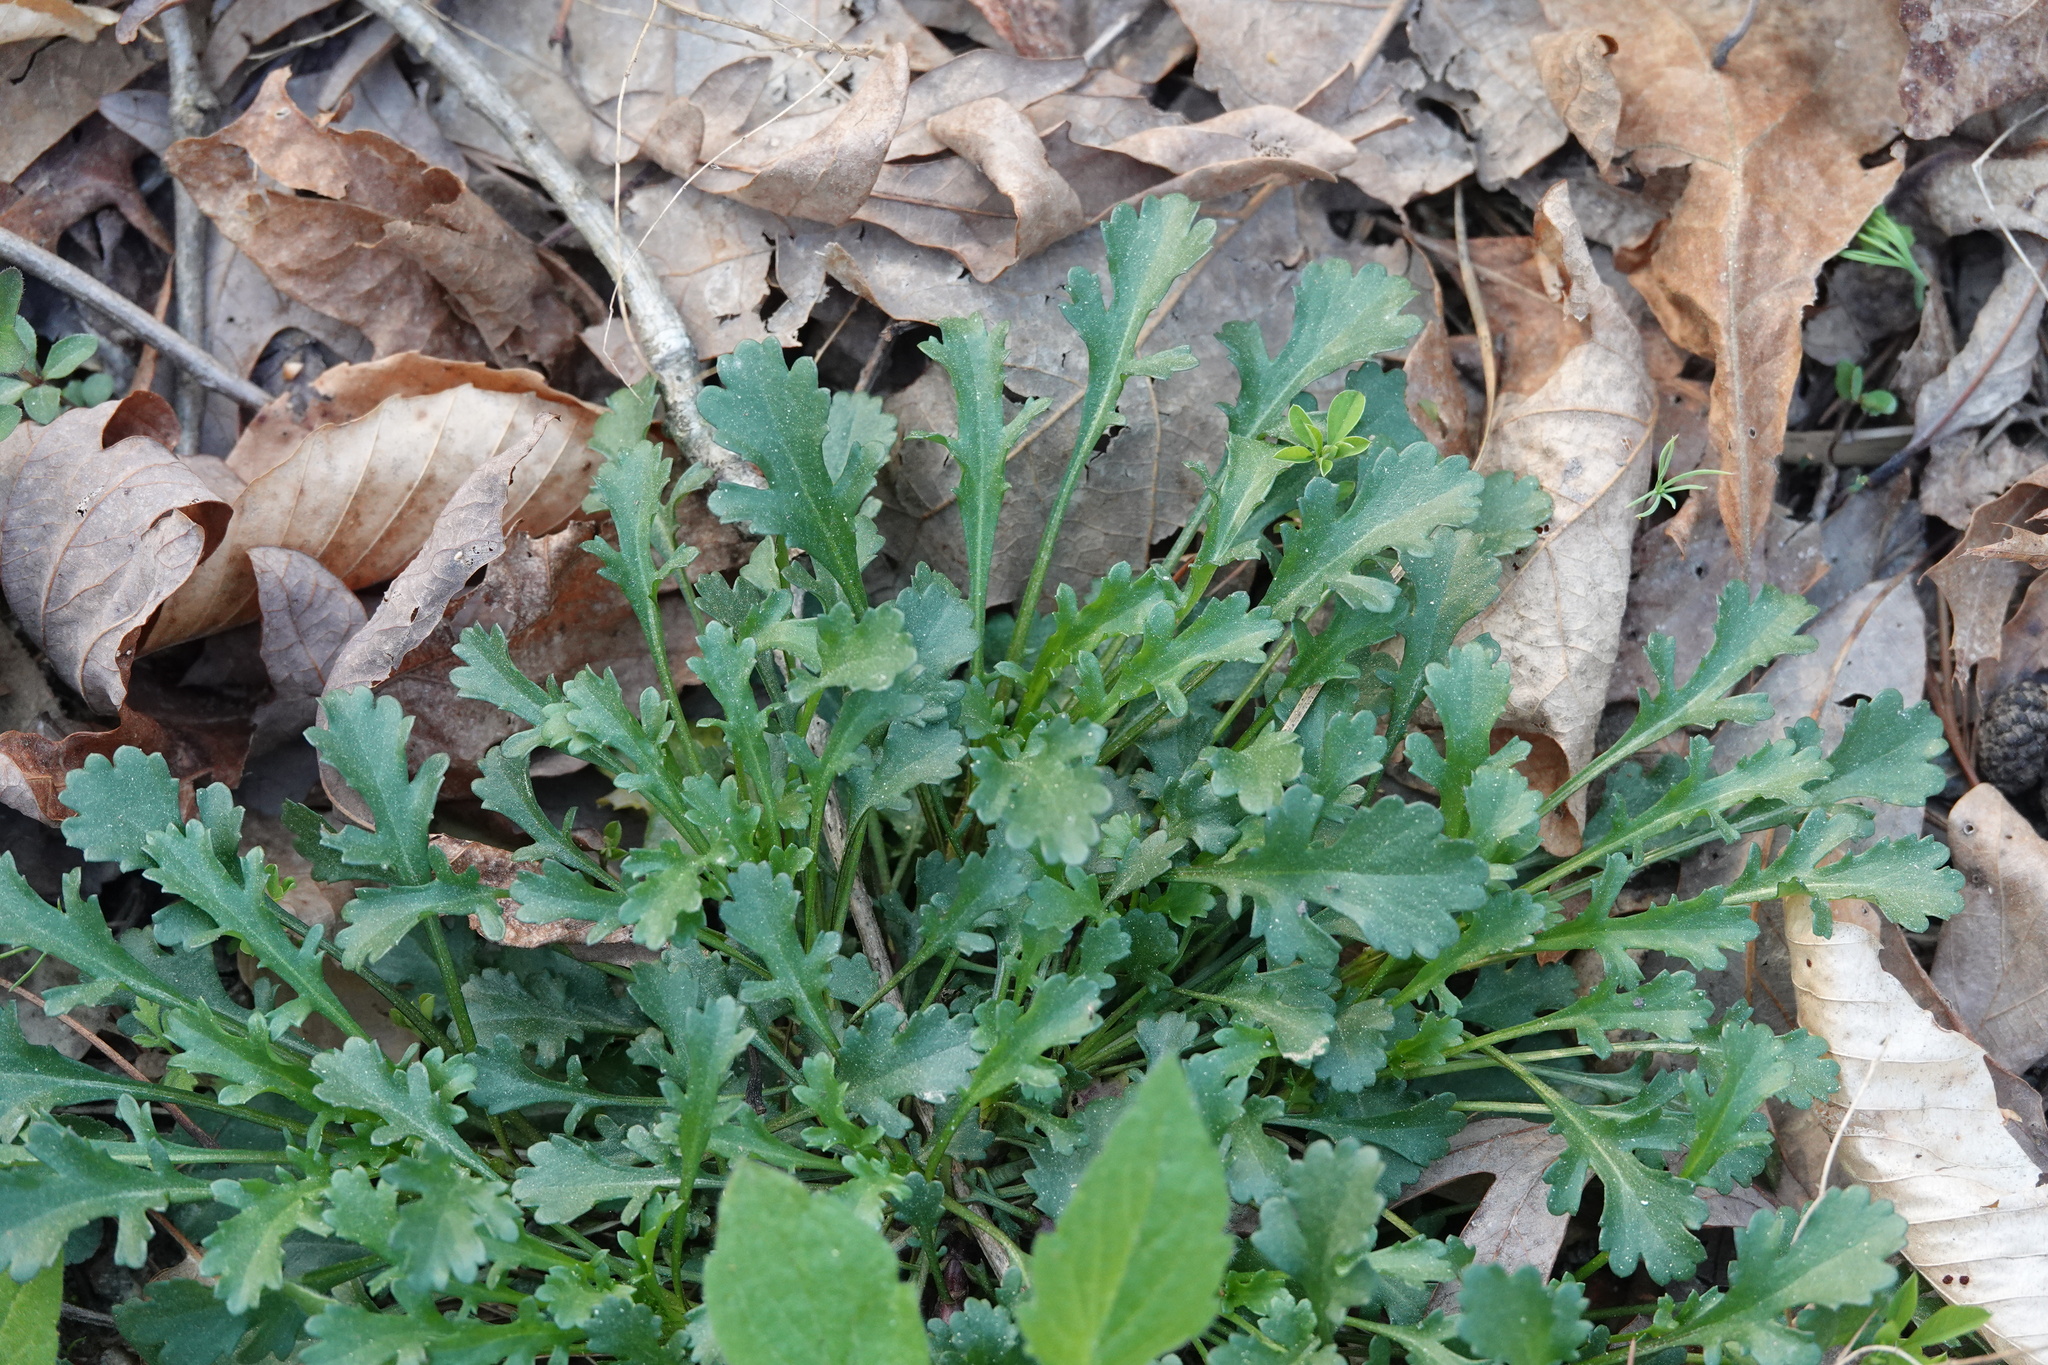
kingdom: Plantae
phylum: Tracheophyta
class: Magnoliopsida
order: Asterales
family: Asteraceae
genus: Leucanthemum
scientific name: Leucanthemum vulgare
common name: Oxeye daisy
